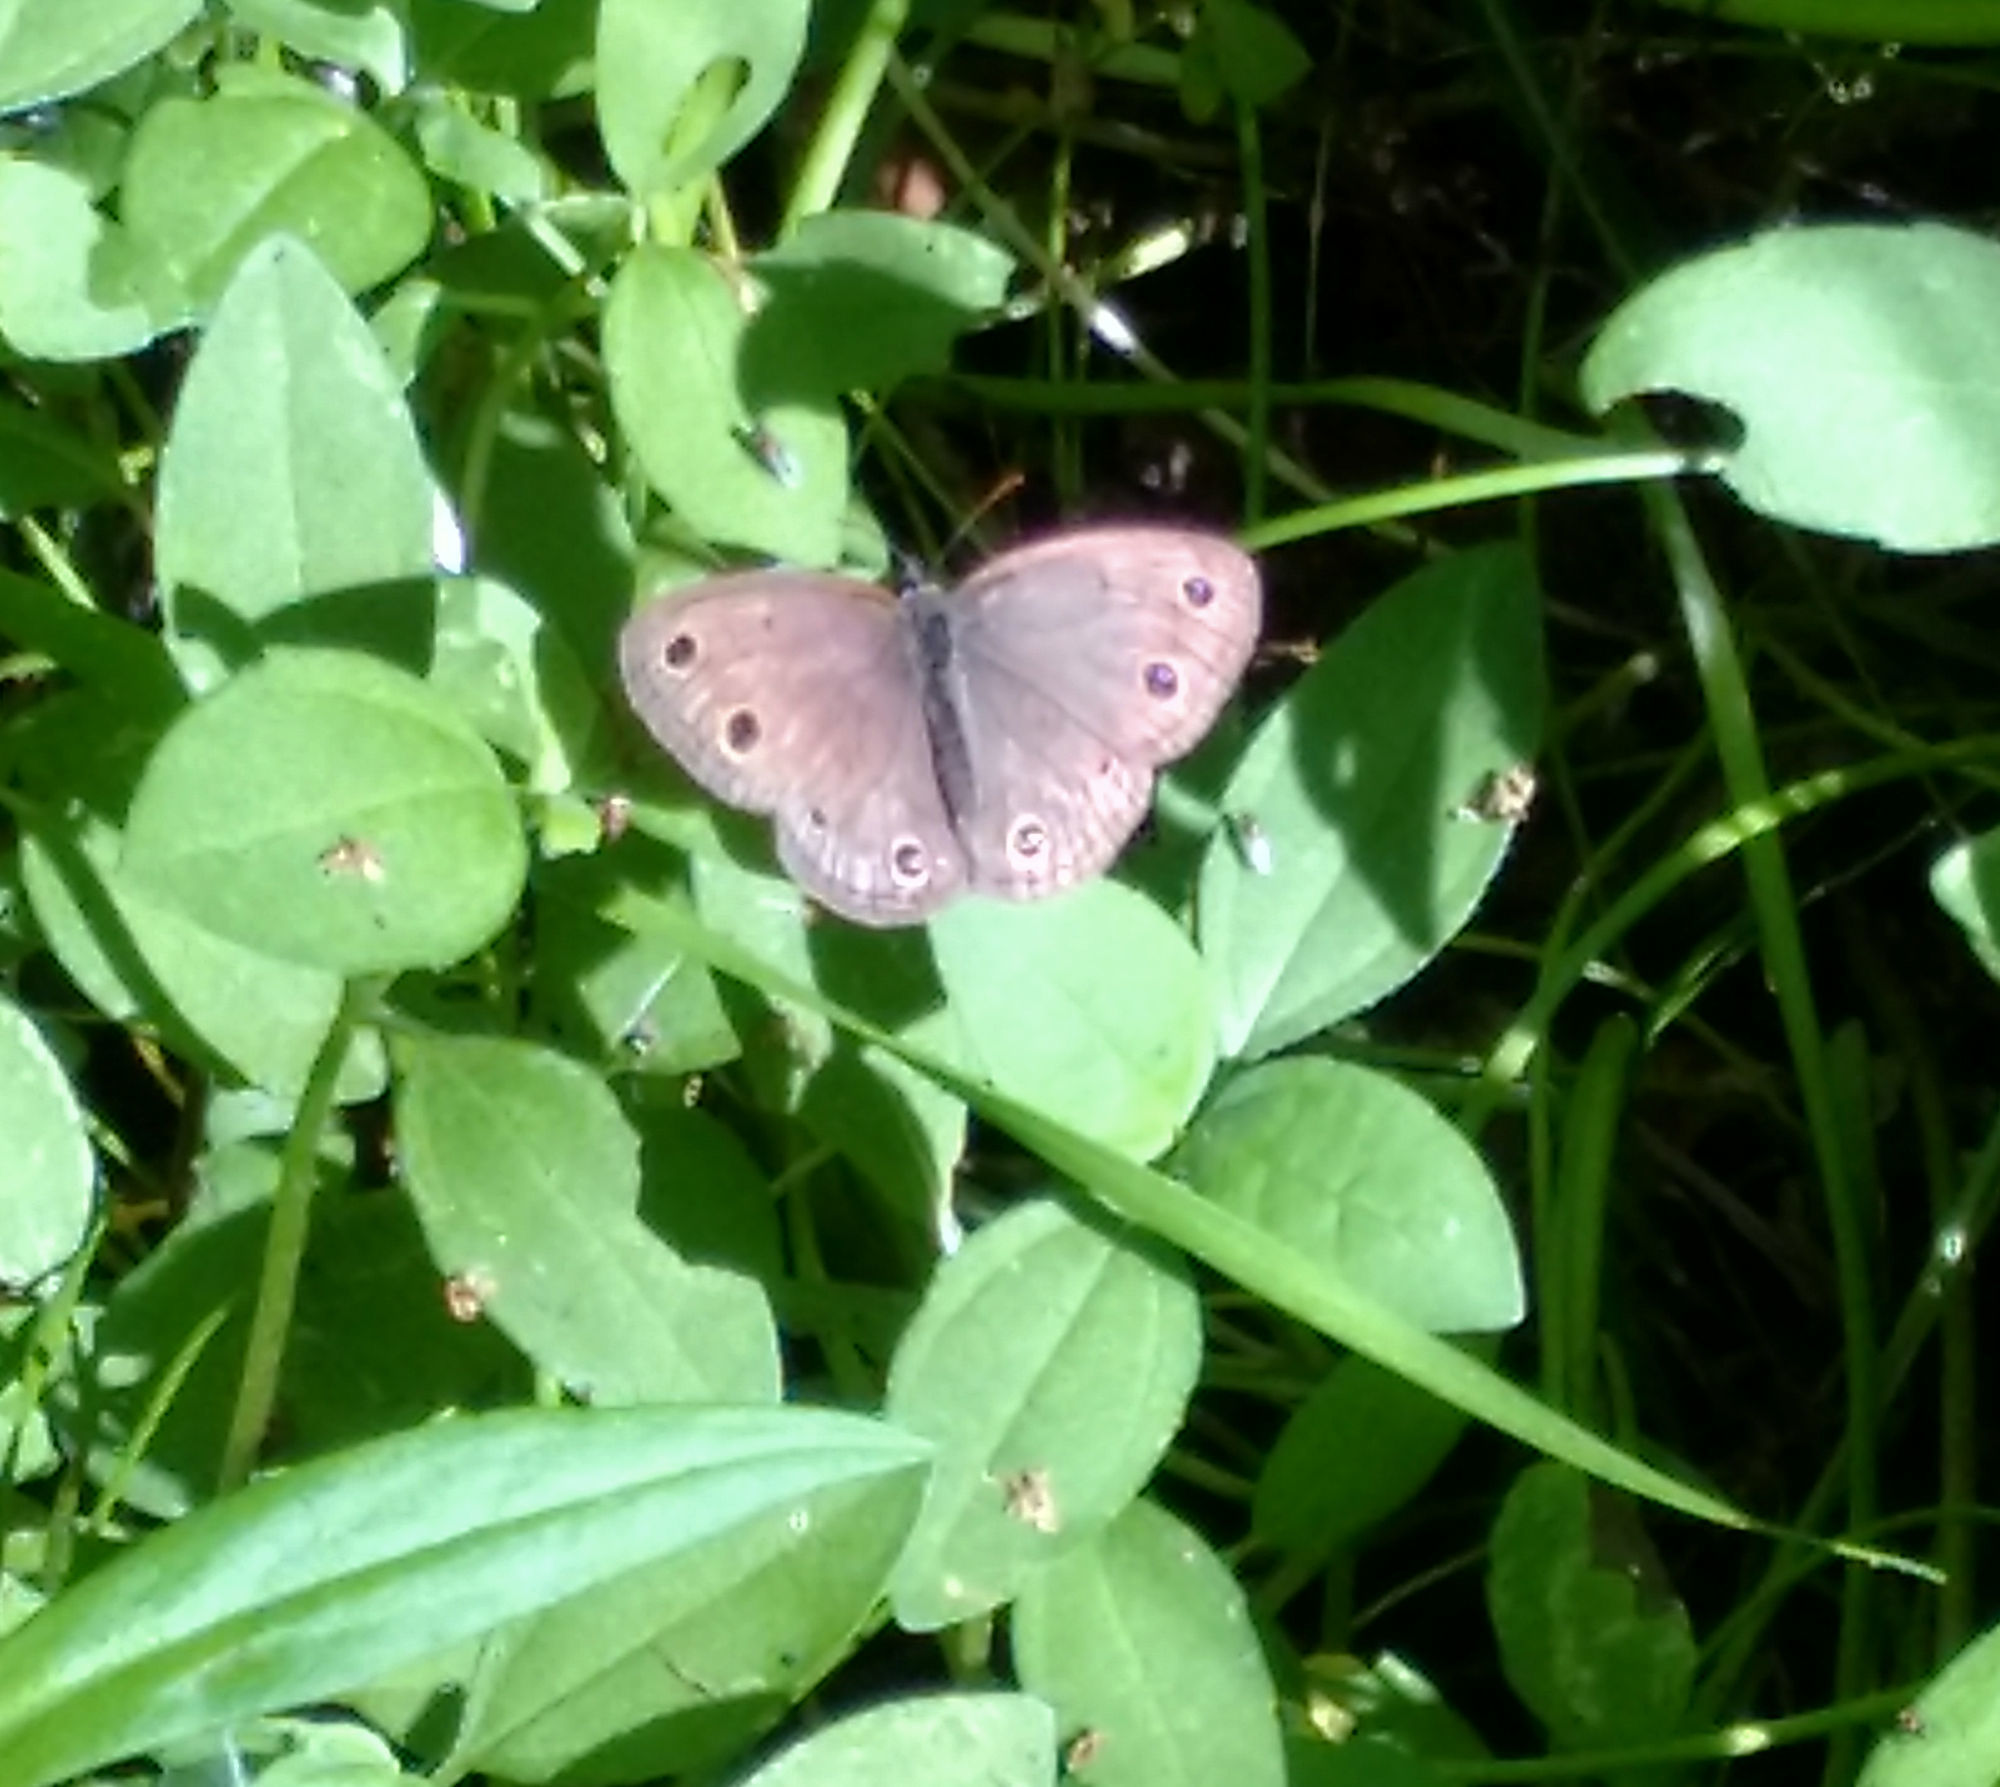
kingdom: Animalia
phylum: Arthropoda
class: Insecta
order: Lepidoptera
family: Nymphalidae
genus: Euptychia
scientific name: Euptychia cymela
